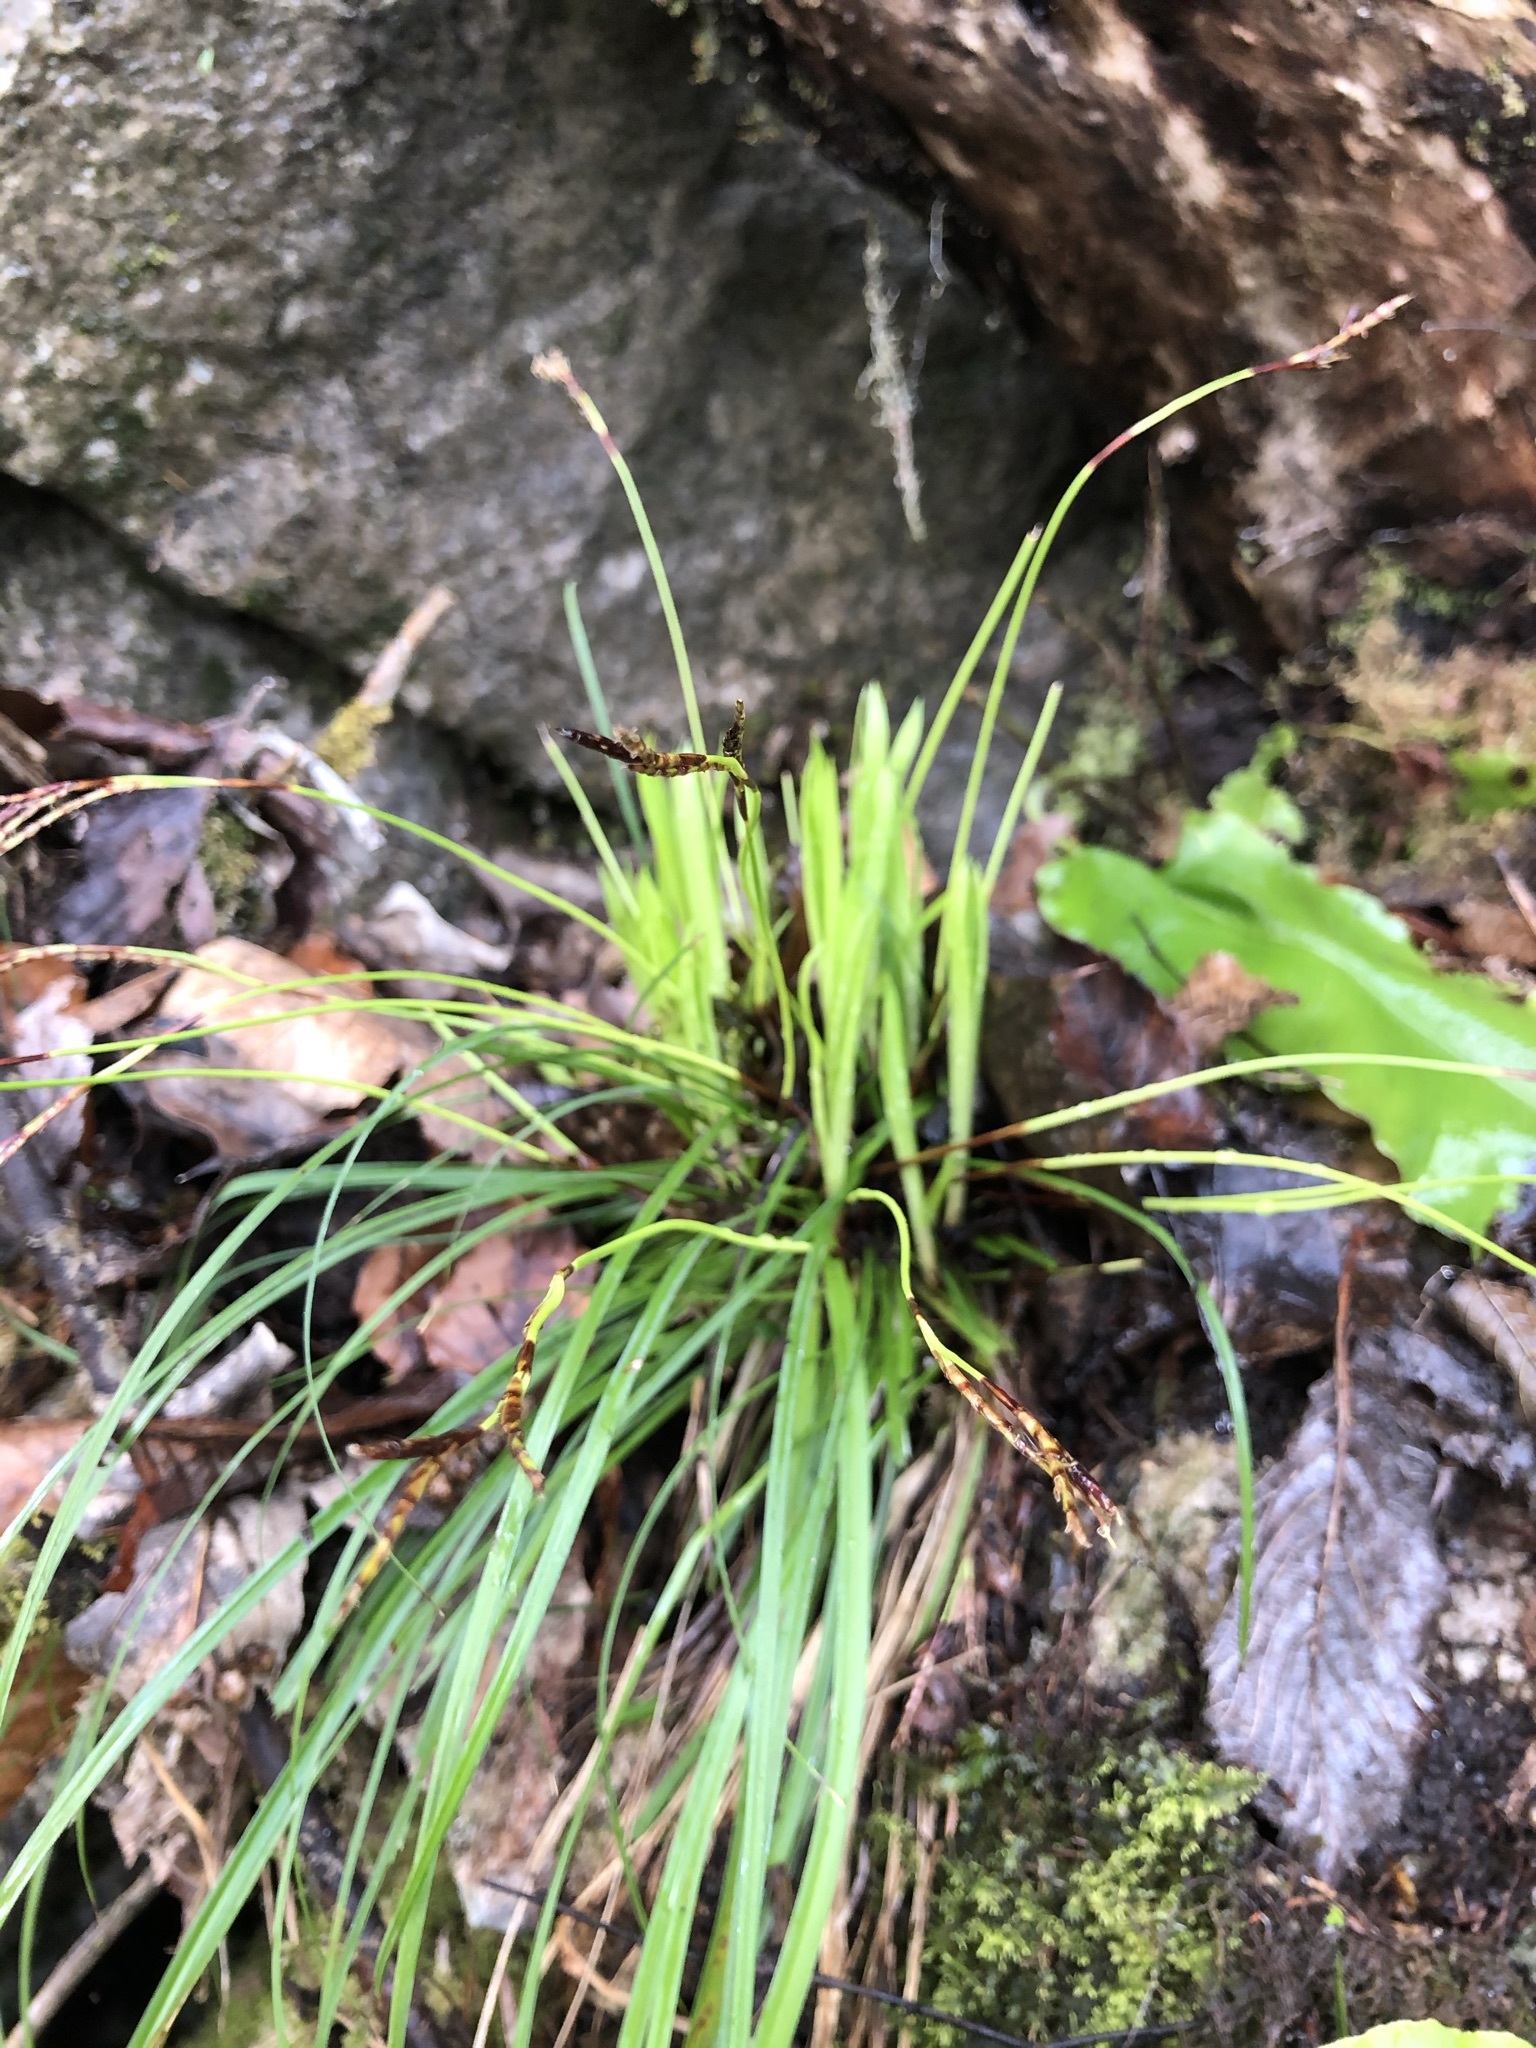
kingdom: Plantae
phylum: Tracheophyta
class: Liliopsida
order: Poales
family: Cyperaceae
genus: Carex
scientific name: Carex digitata
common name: Fingered sedge
